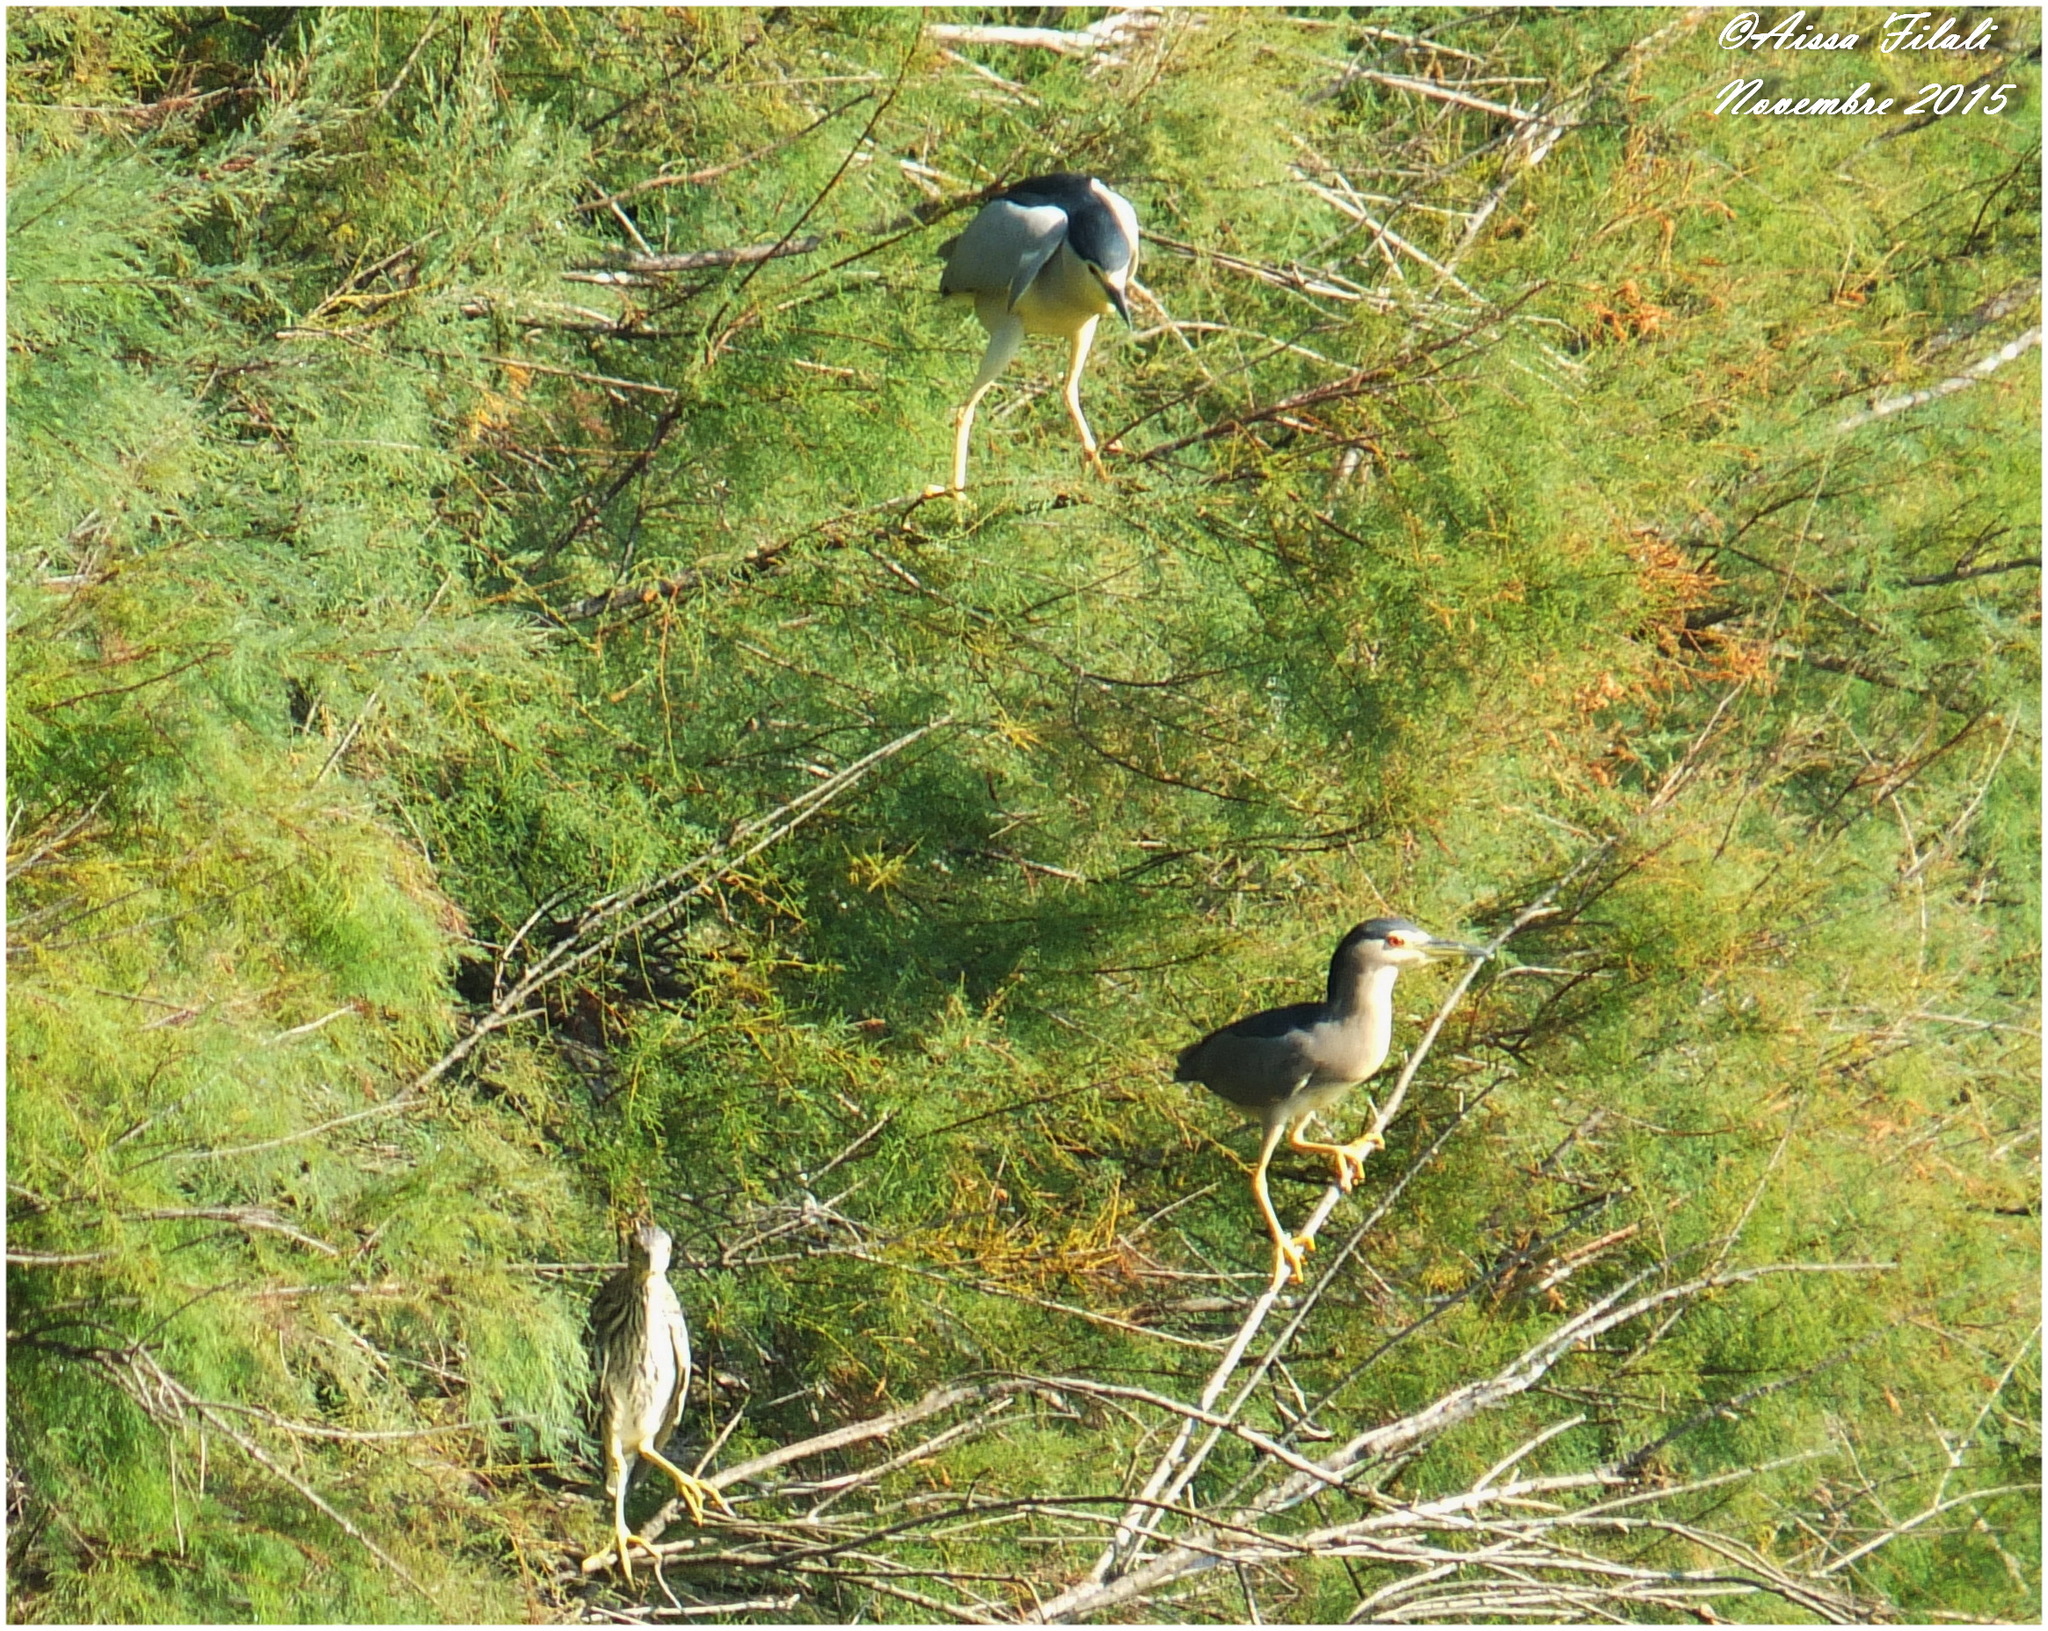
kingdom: Animalia
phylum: Chordata
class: Aves
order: Pelecaniformes
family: Ardeidae
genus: Nycticorax
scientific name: Nycticorax nycticorax
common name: Black-crowned night heron
